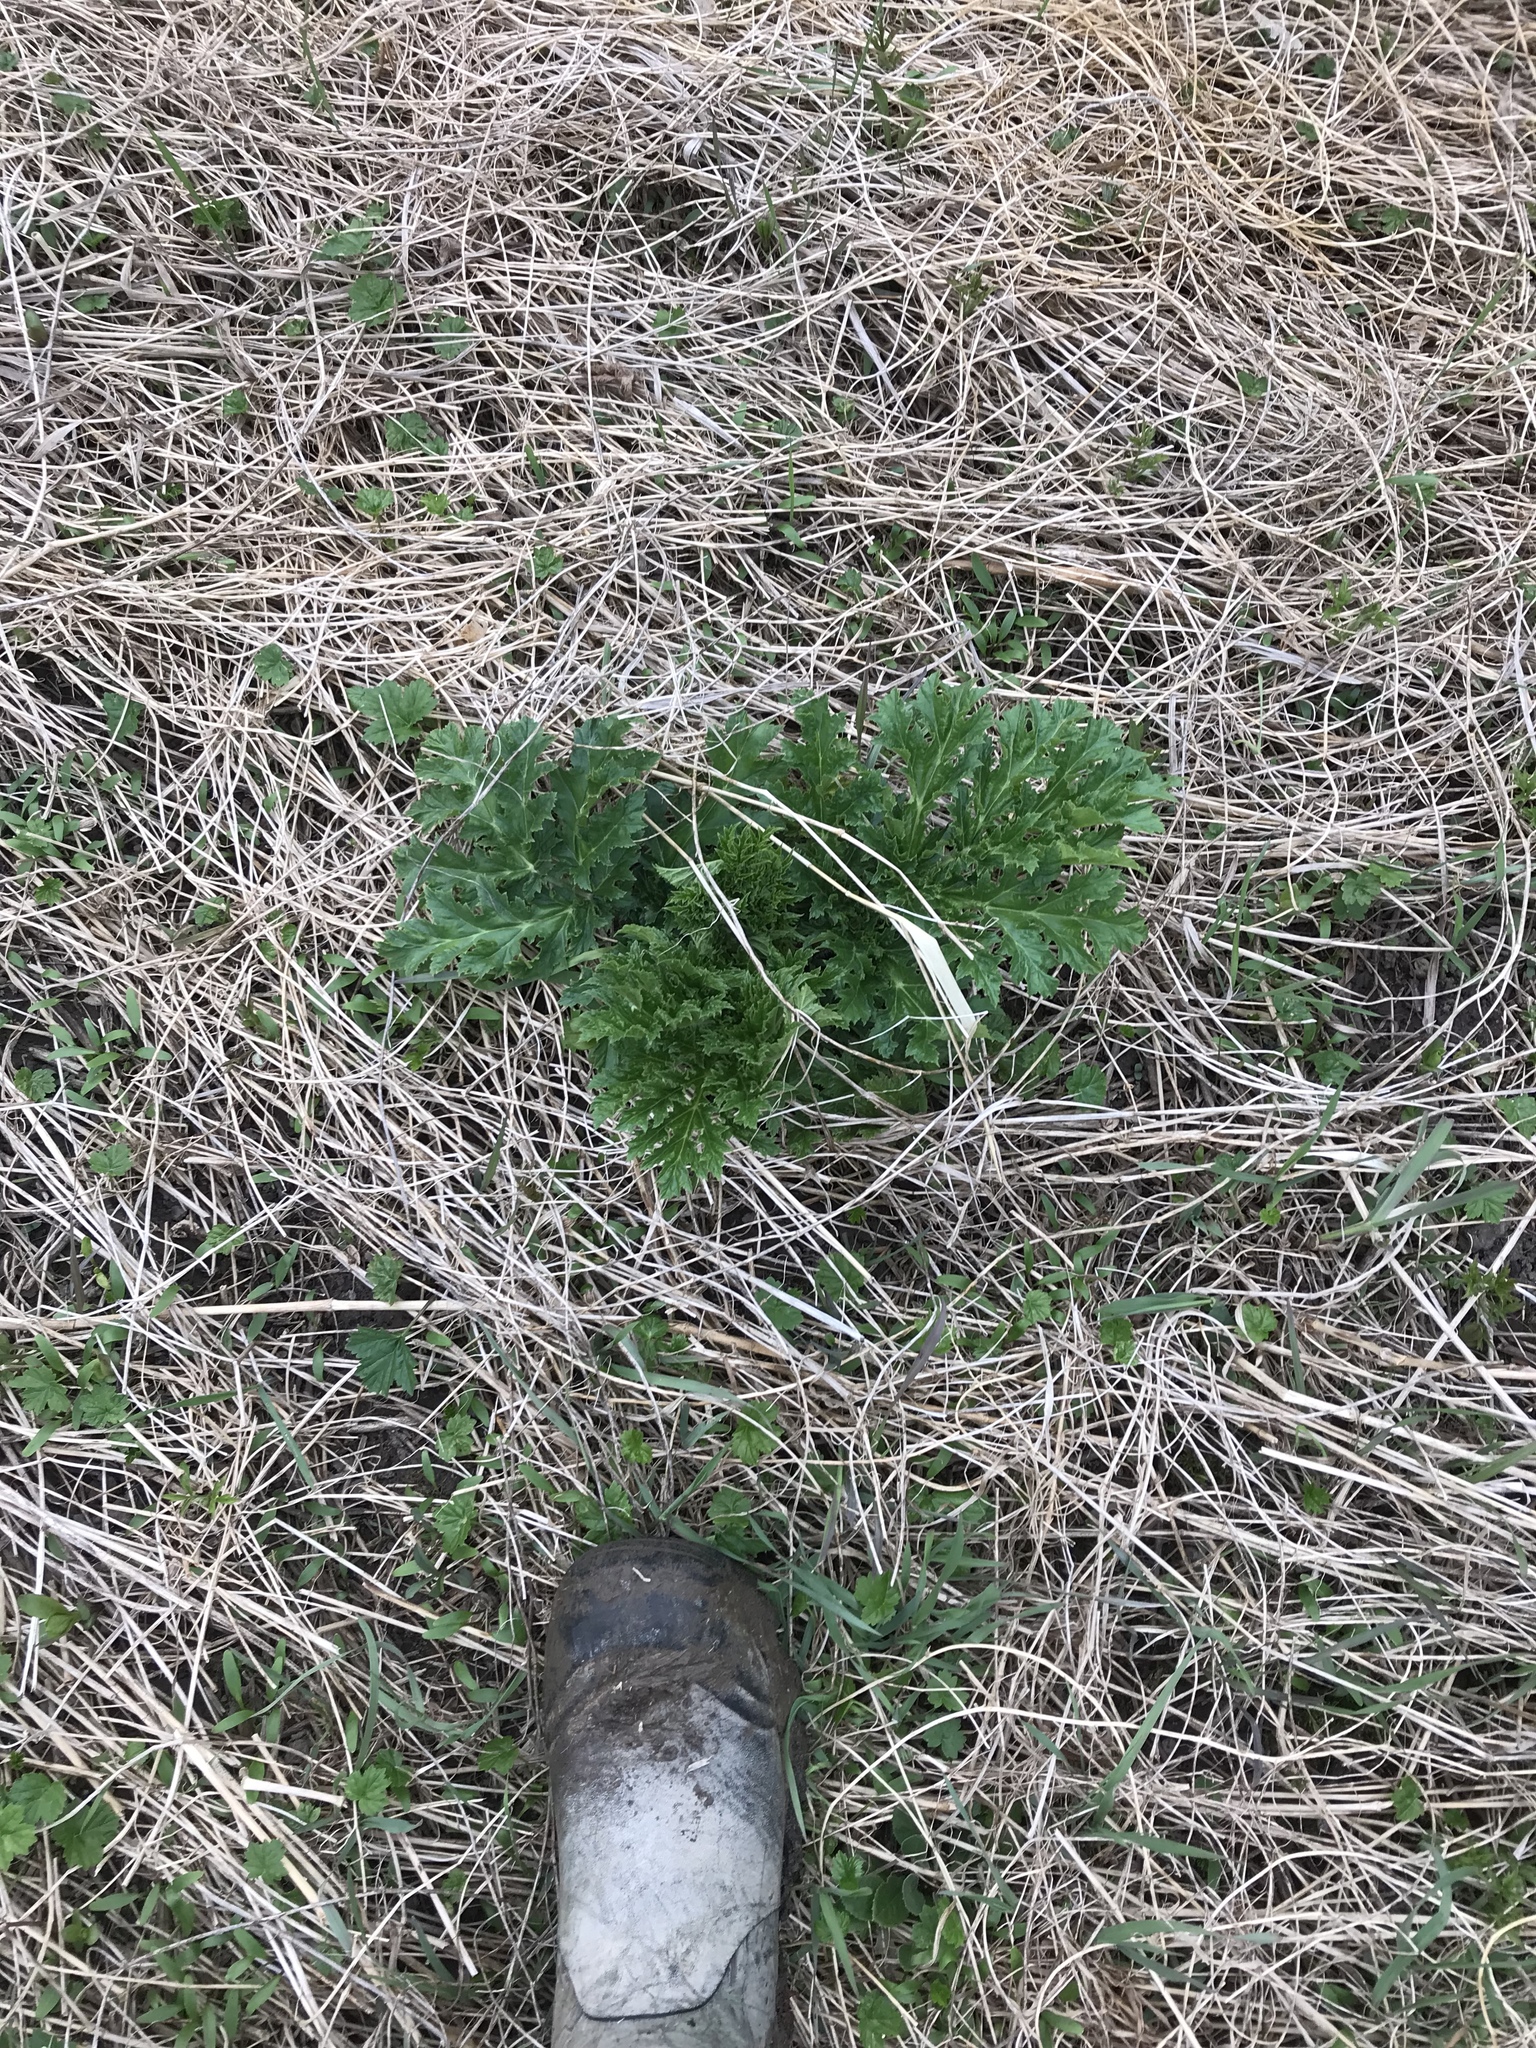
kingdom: Plantae
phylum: Tracheophyta
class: Magnoliopsida
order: Apiales
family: Apiaceae
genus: Heracleum
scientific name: Heracleum mantegazzianum
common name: Giant hogweed
